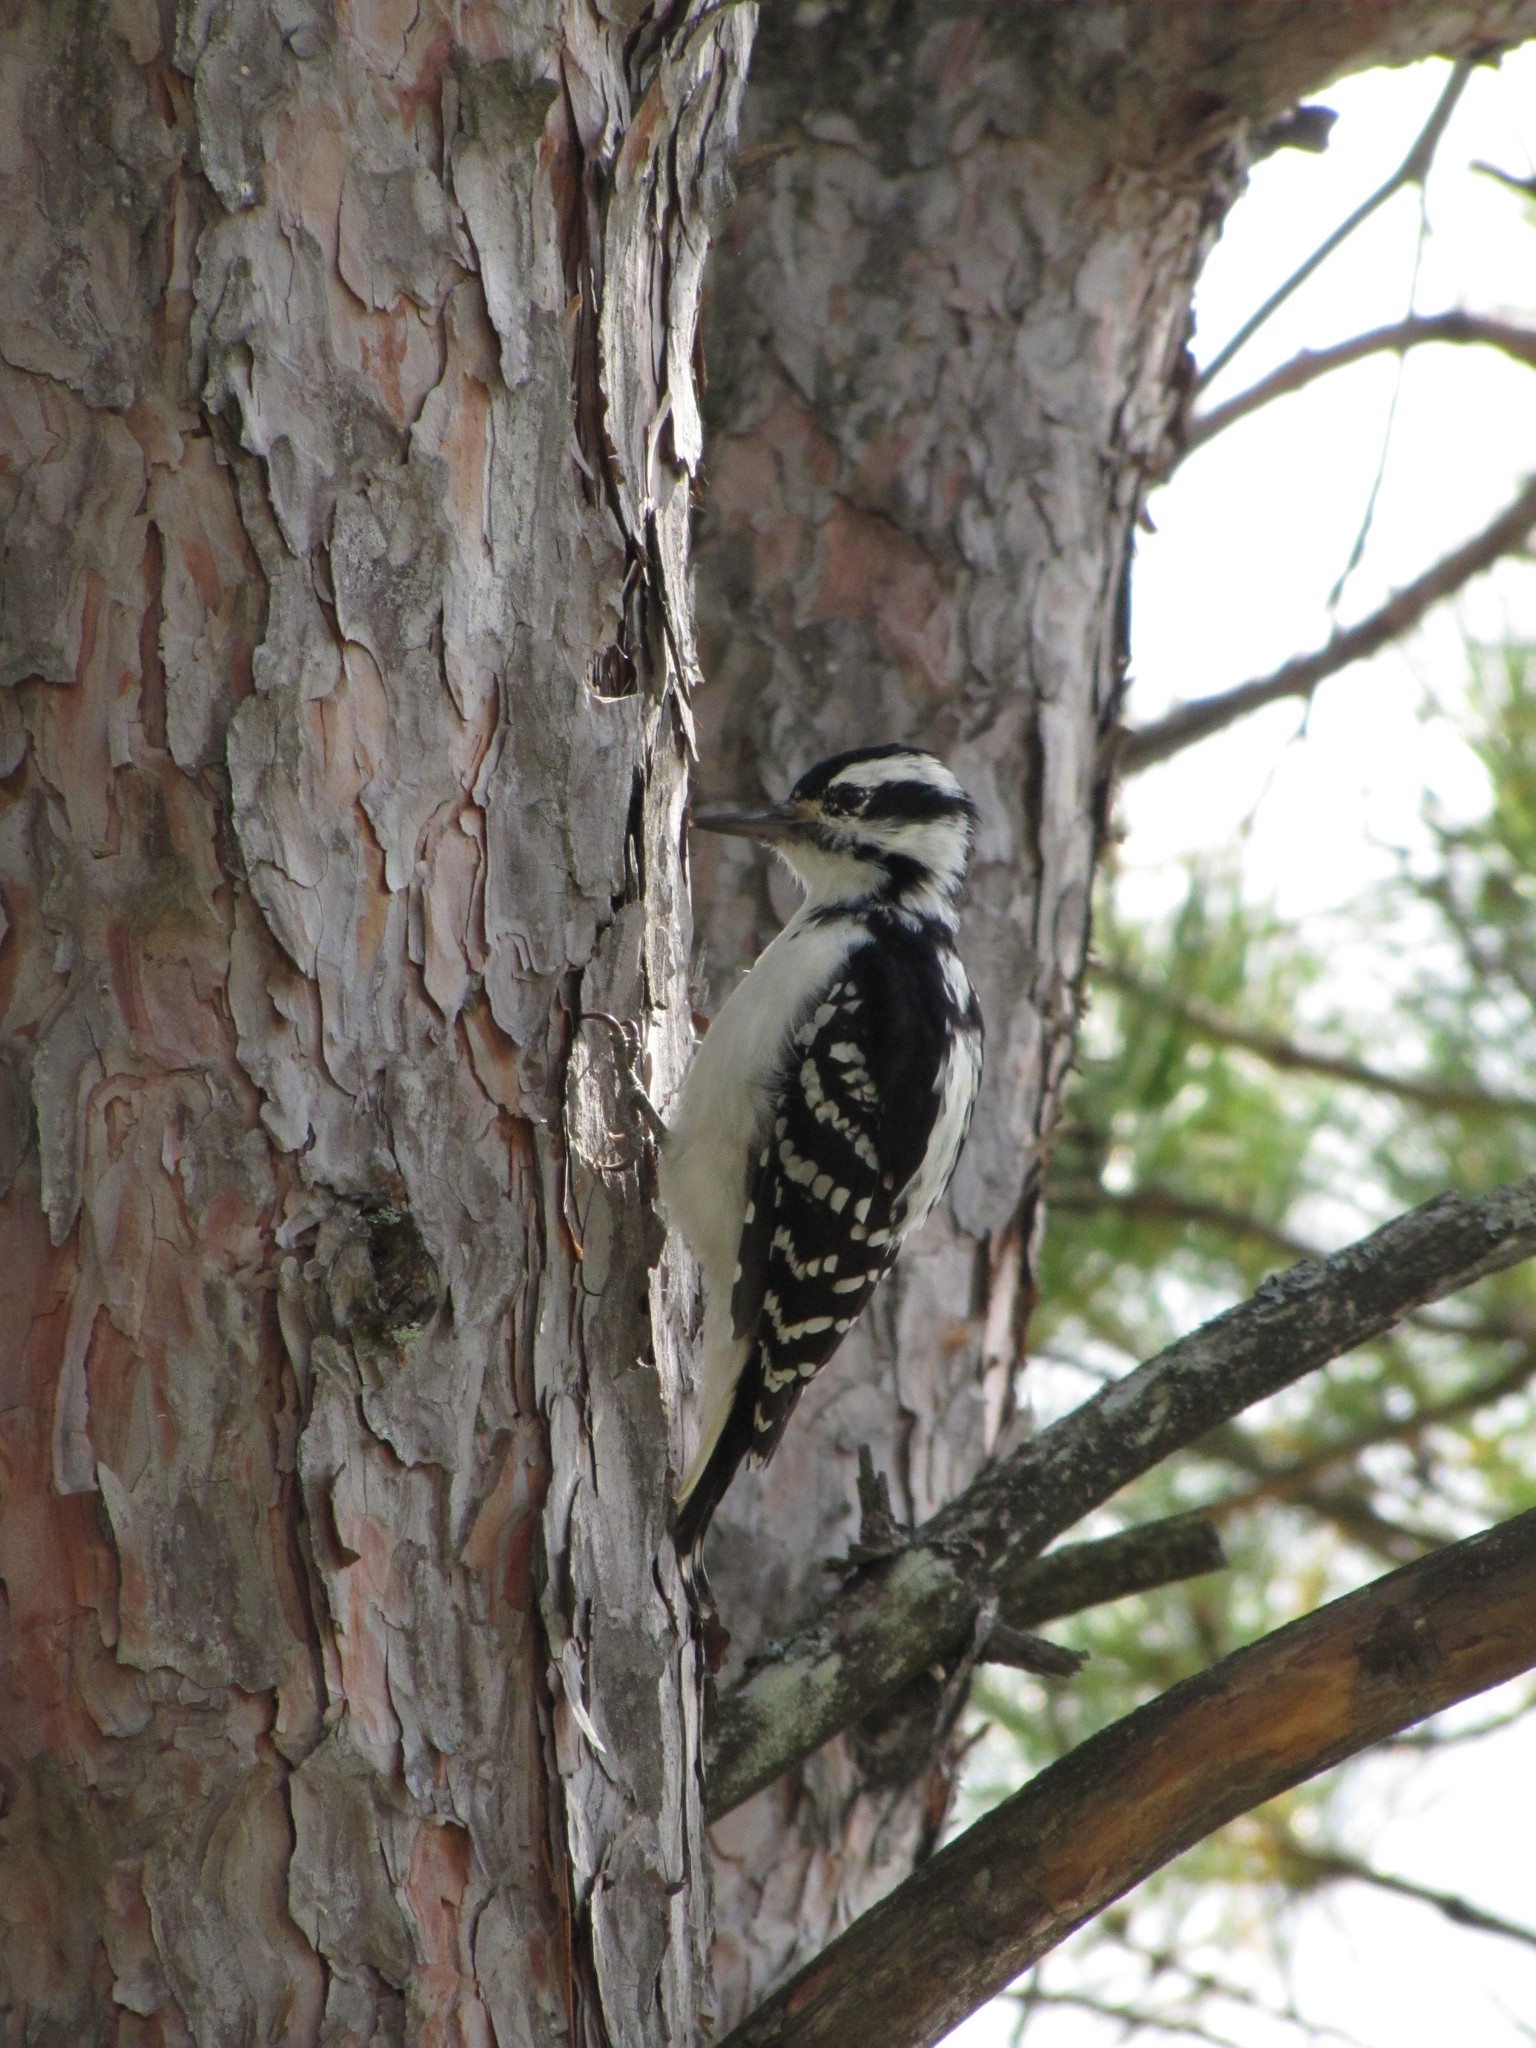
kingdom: Animalia
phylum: Chordata
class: Aves
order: Piciformes
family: Picidae
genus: Leuconotopicus
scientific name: Leuconotopicus villosus
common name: Hairy woodpecker
